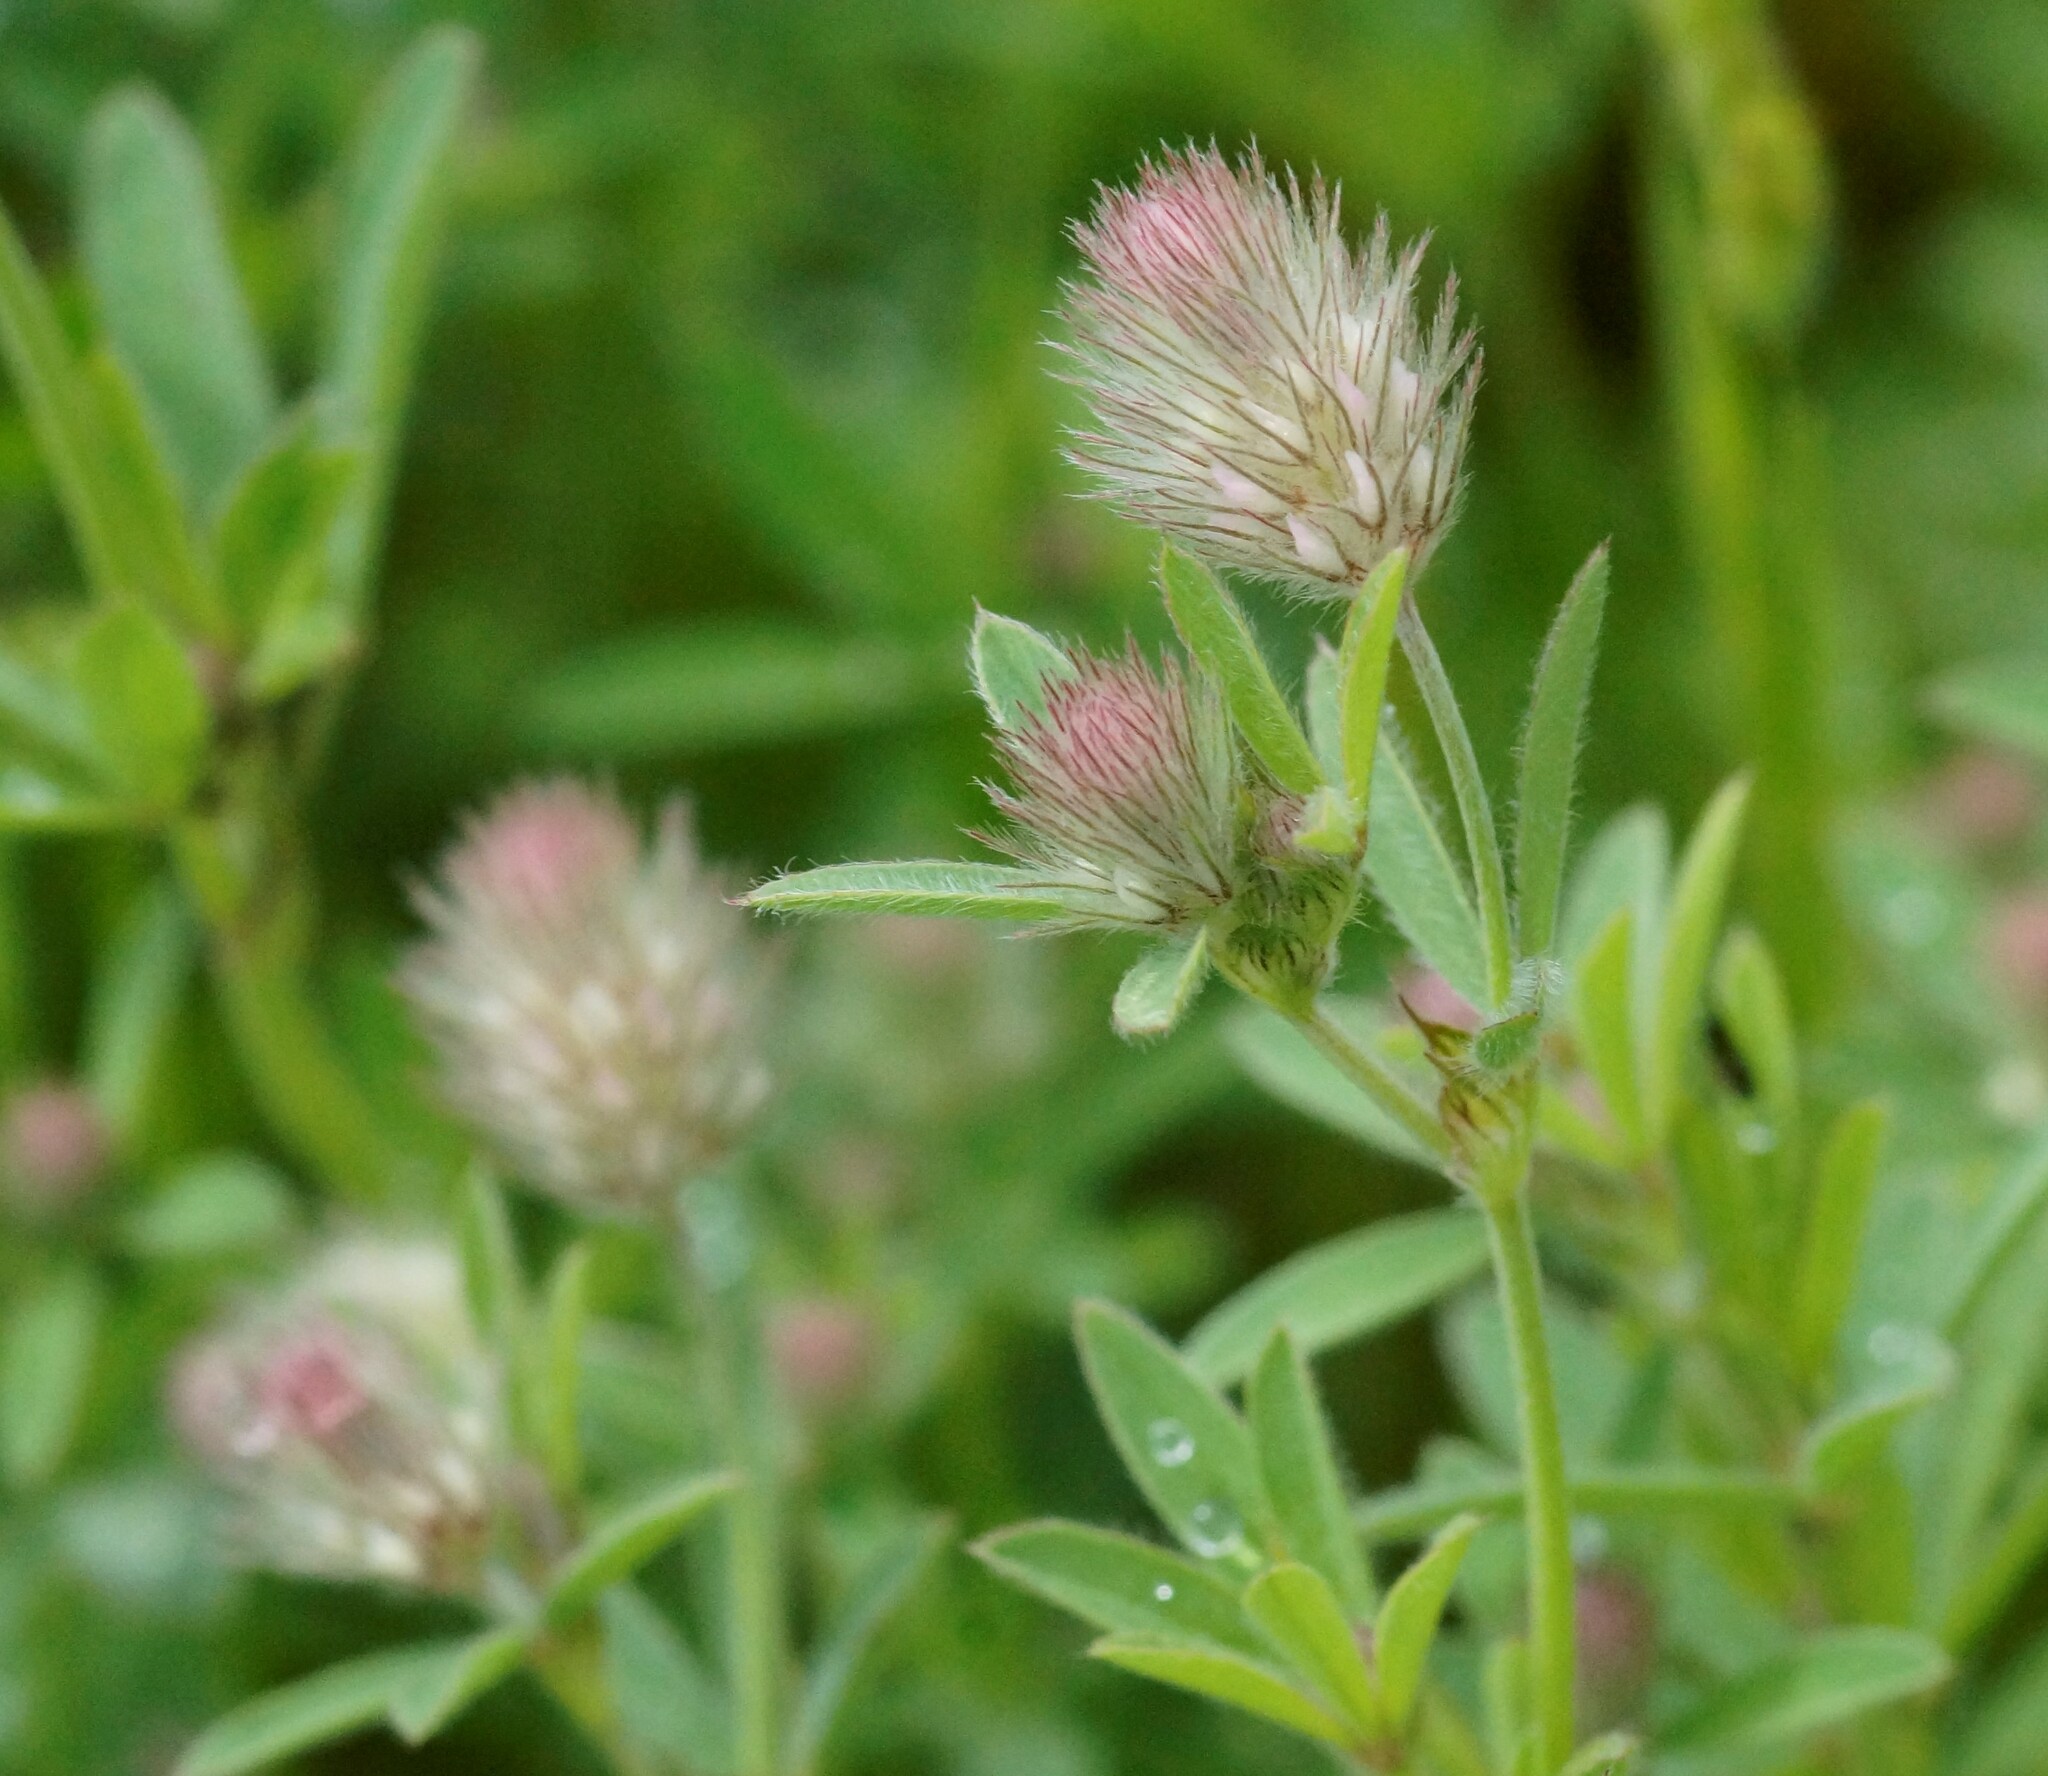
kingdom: Plantae
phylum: Tracheophyta
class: Magnoliopsida
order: Fabales
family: Fabaceae
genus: Trifolium
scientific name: Trifolium arvense
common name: Hare's-foot clover
